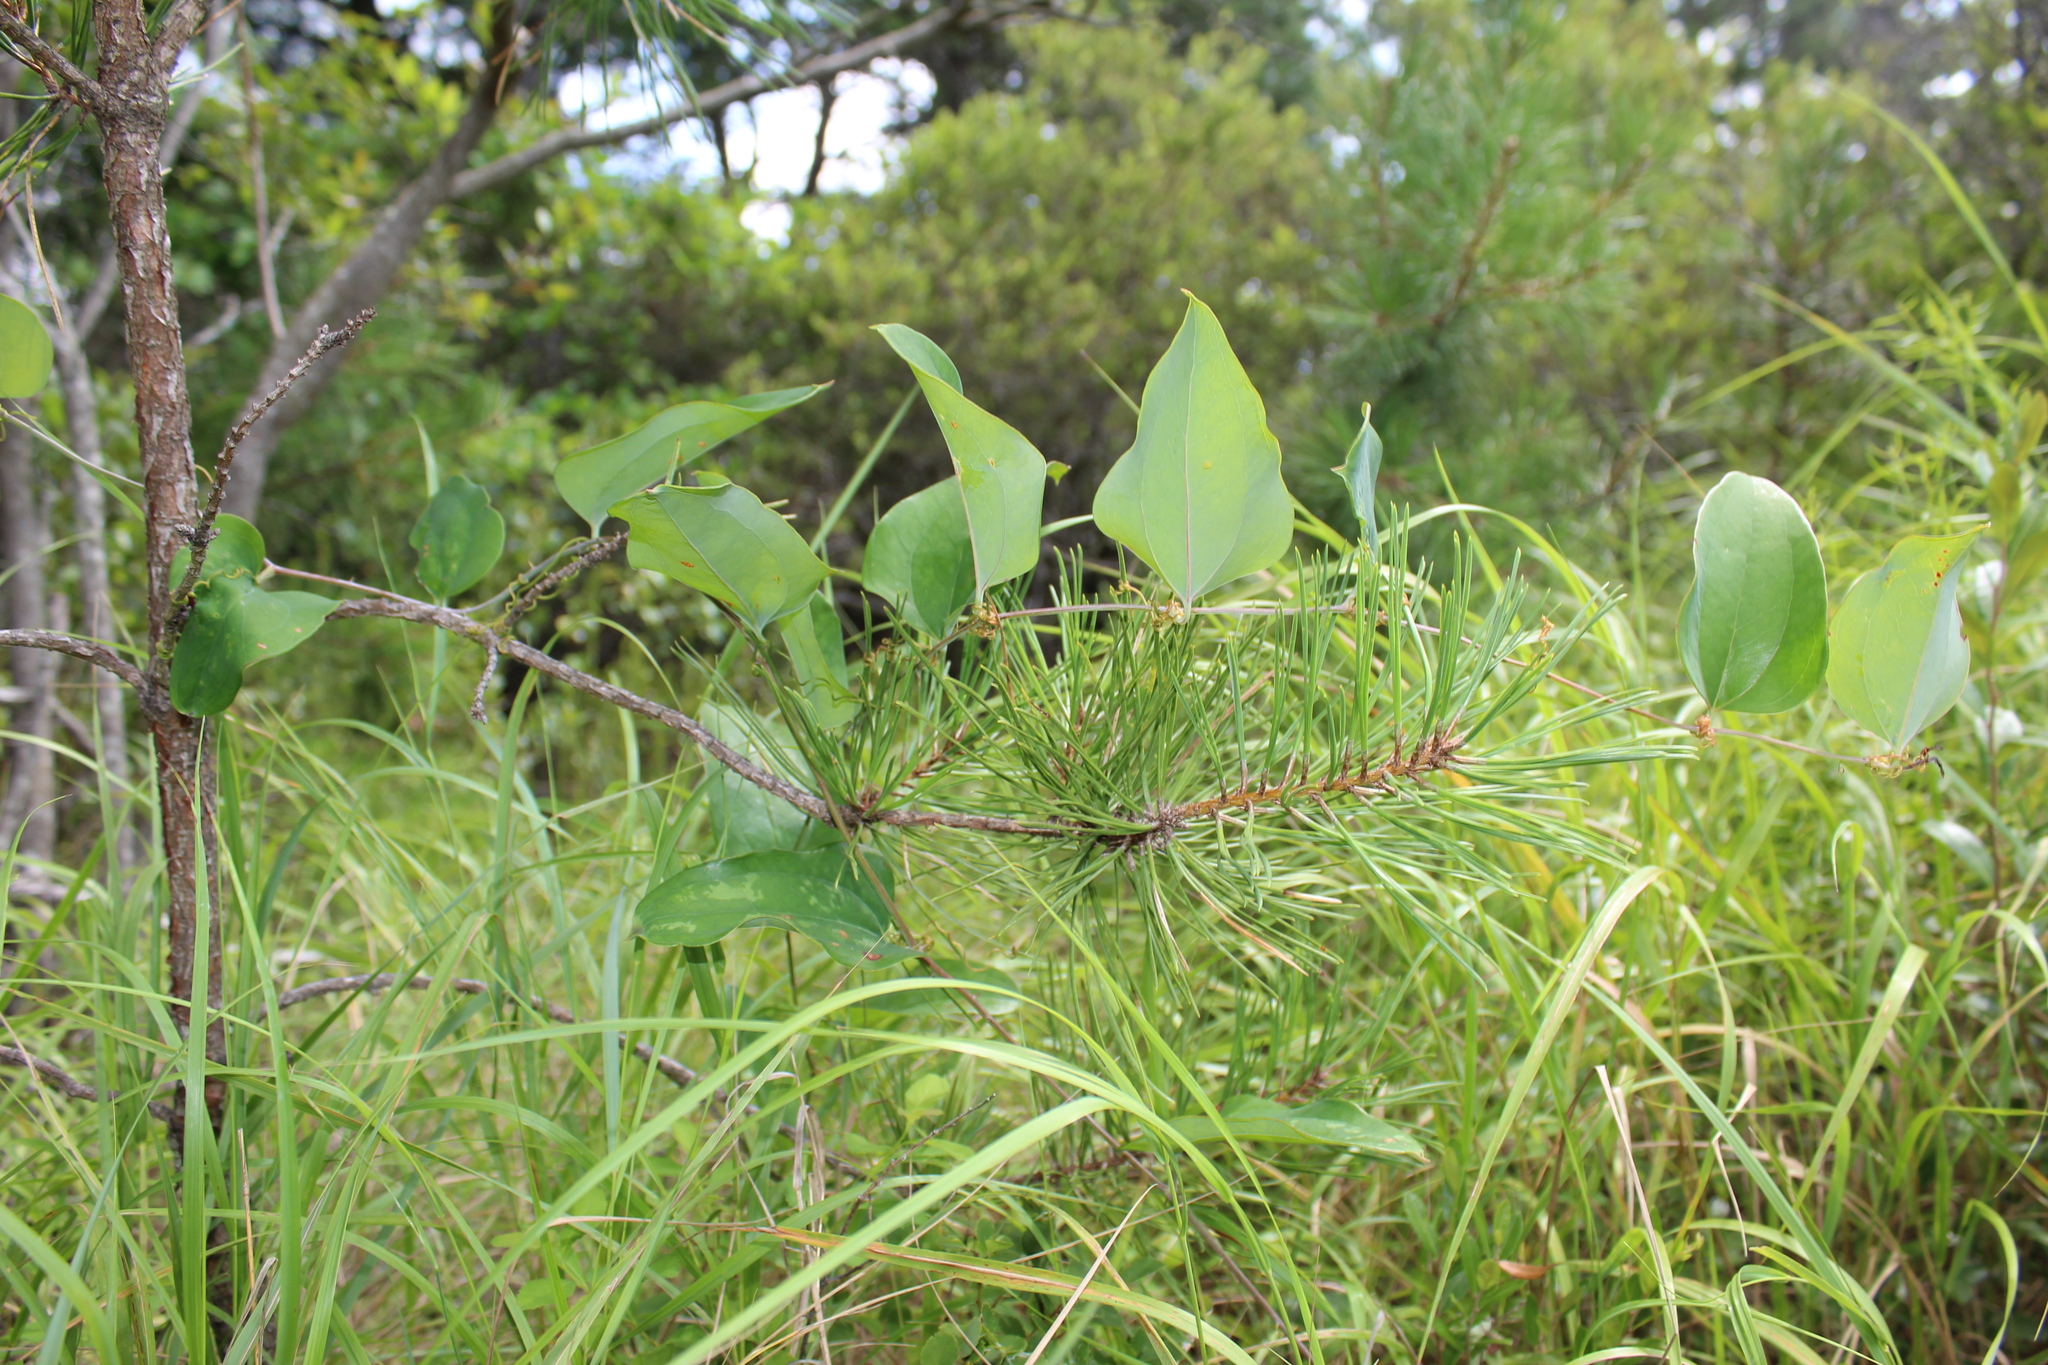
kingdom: Plantae
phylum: Tracheophyta
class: Pinopsida
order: Pinales
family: Pinaceae
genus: Pinus
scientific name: Pinus rigida
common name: Pitch pine
